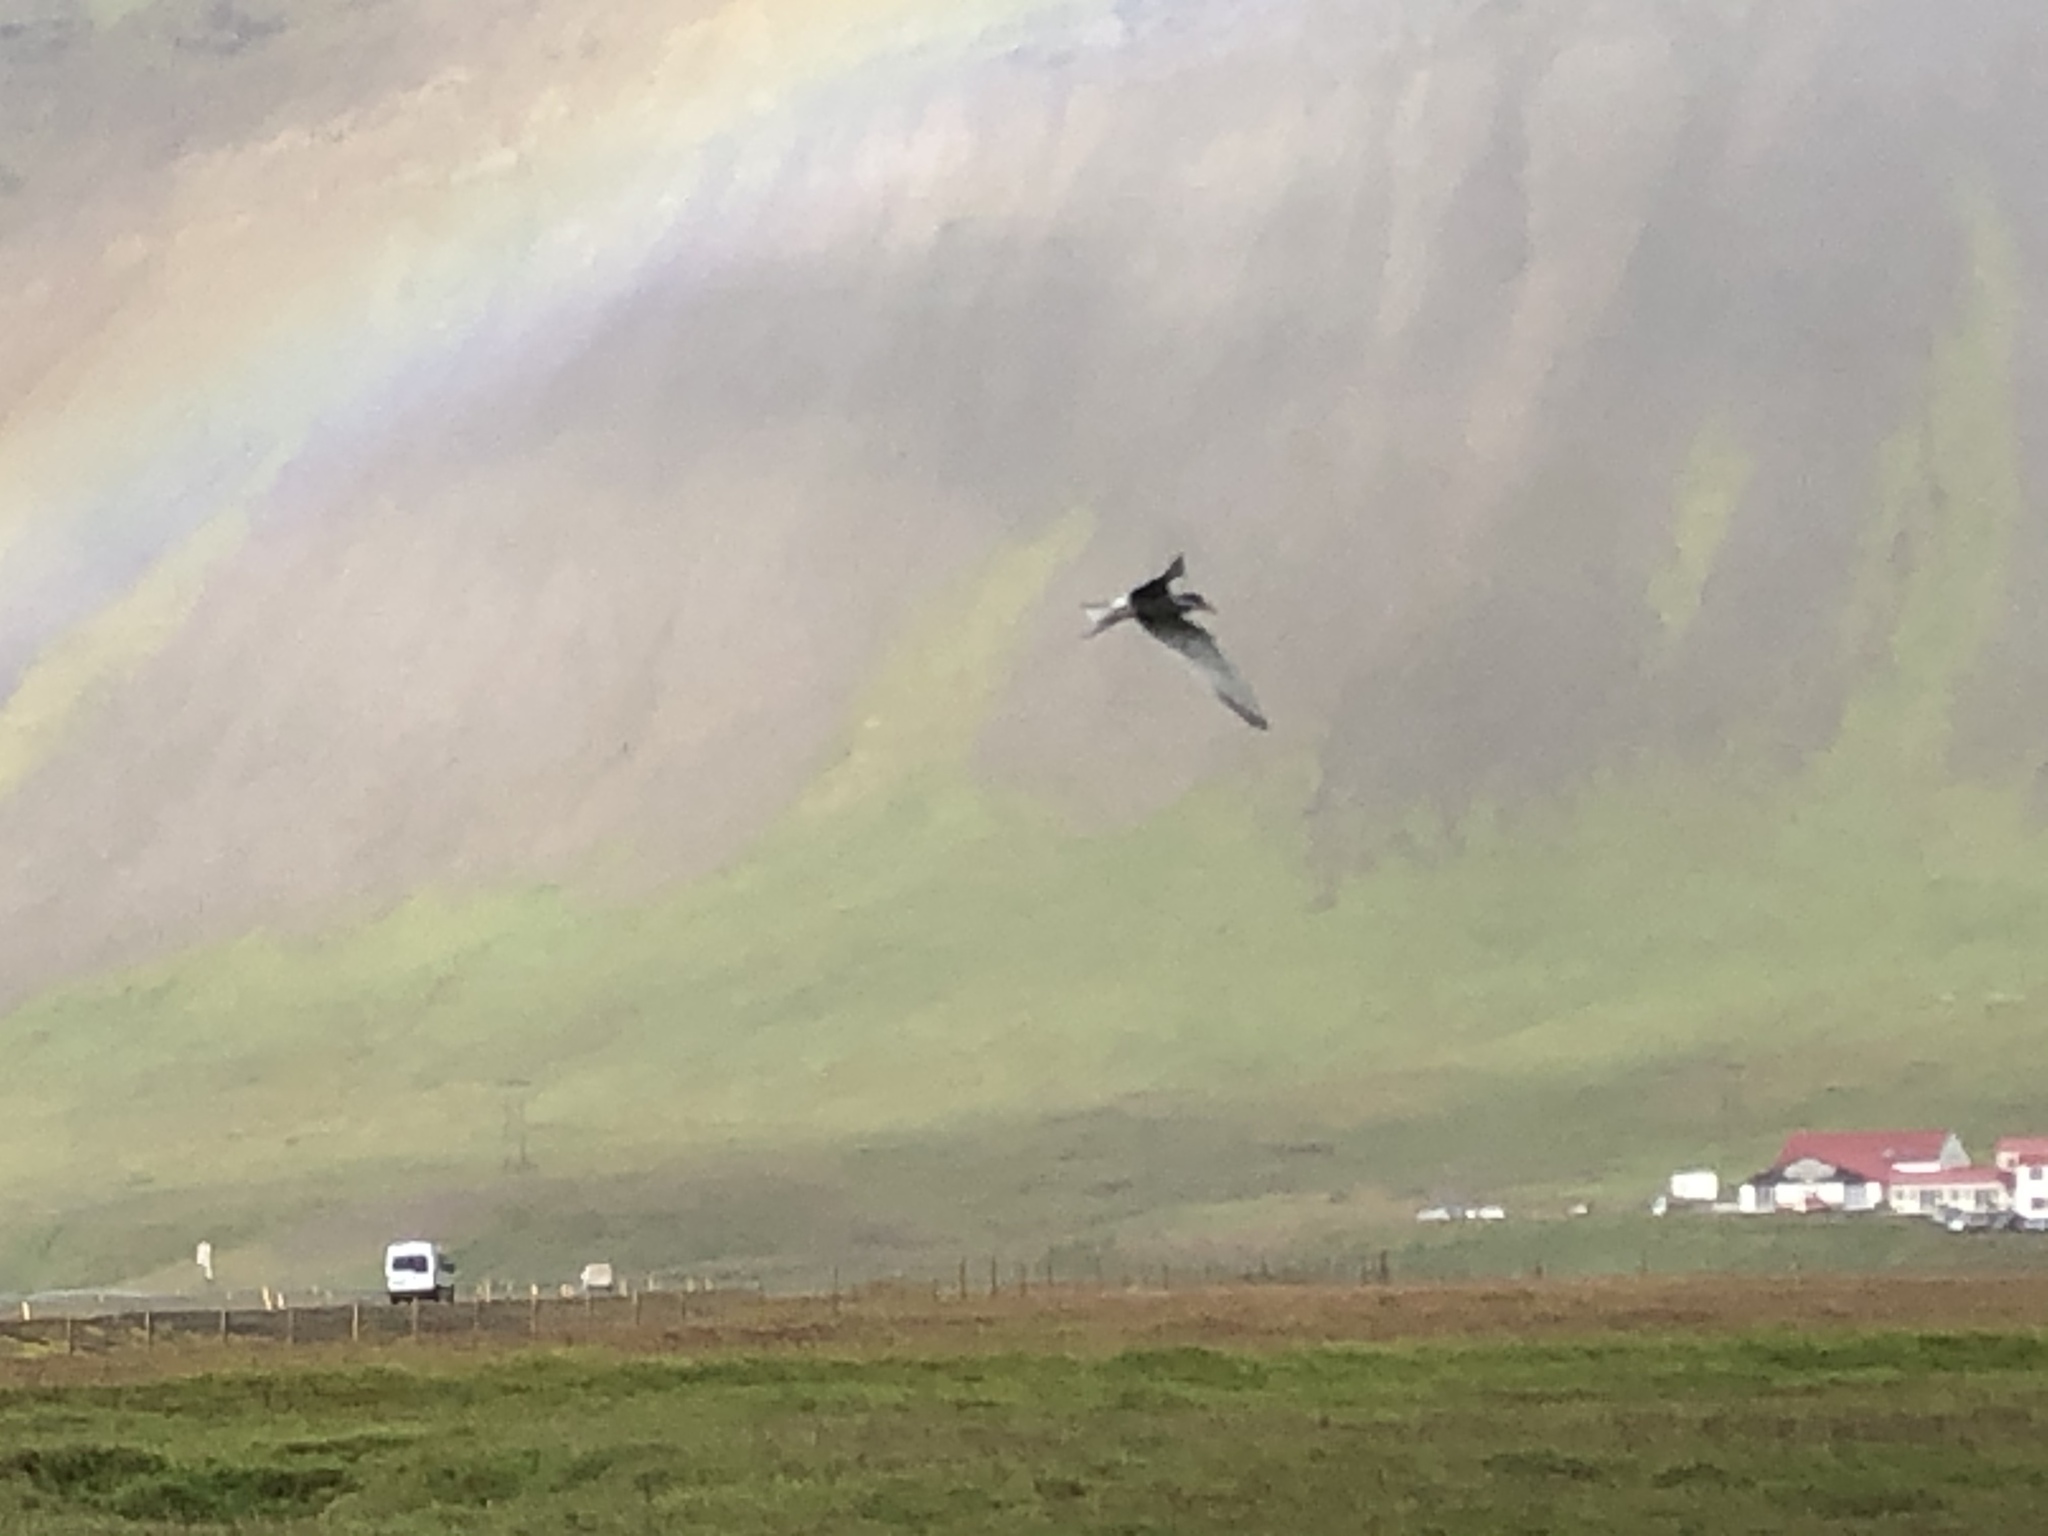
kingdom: Animalia
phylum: Chordata
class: Aves
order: Charadriiformes
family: Laridae
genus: Sterna
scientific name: Sterna paradisaea
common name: Arctic tern
